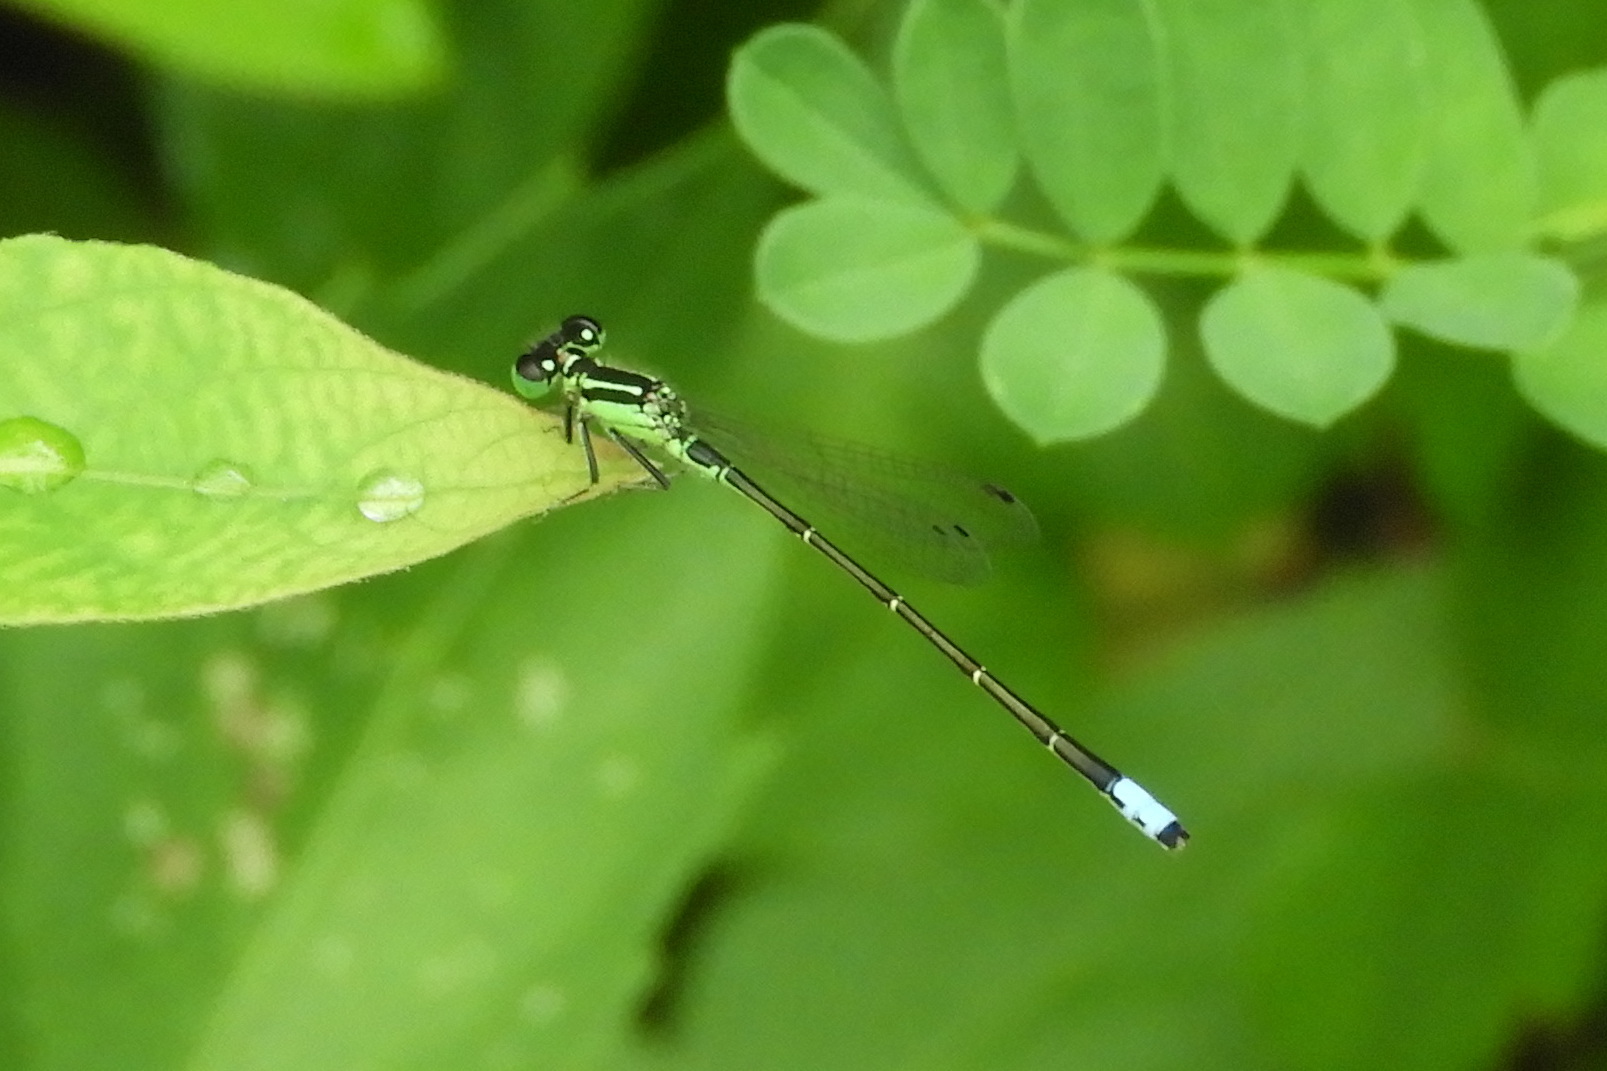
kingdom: Animalia
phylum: Arthropoda
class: Insecta
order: Odonata
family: Coenagrionidae
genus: Ischnura
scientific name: Ischnura verticalis
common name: Eastern forktail
